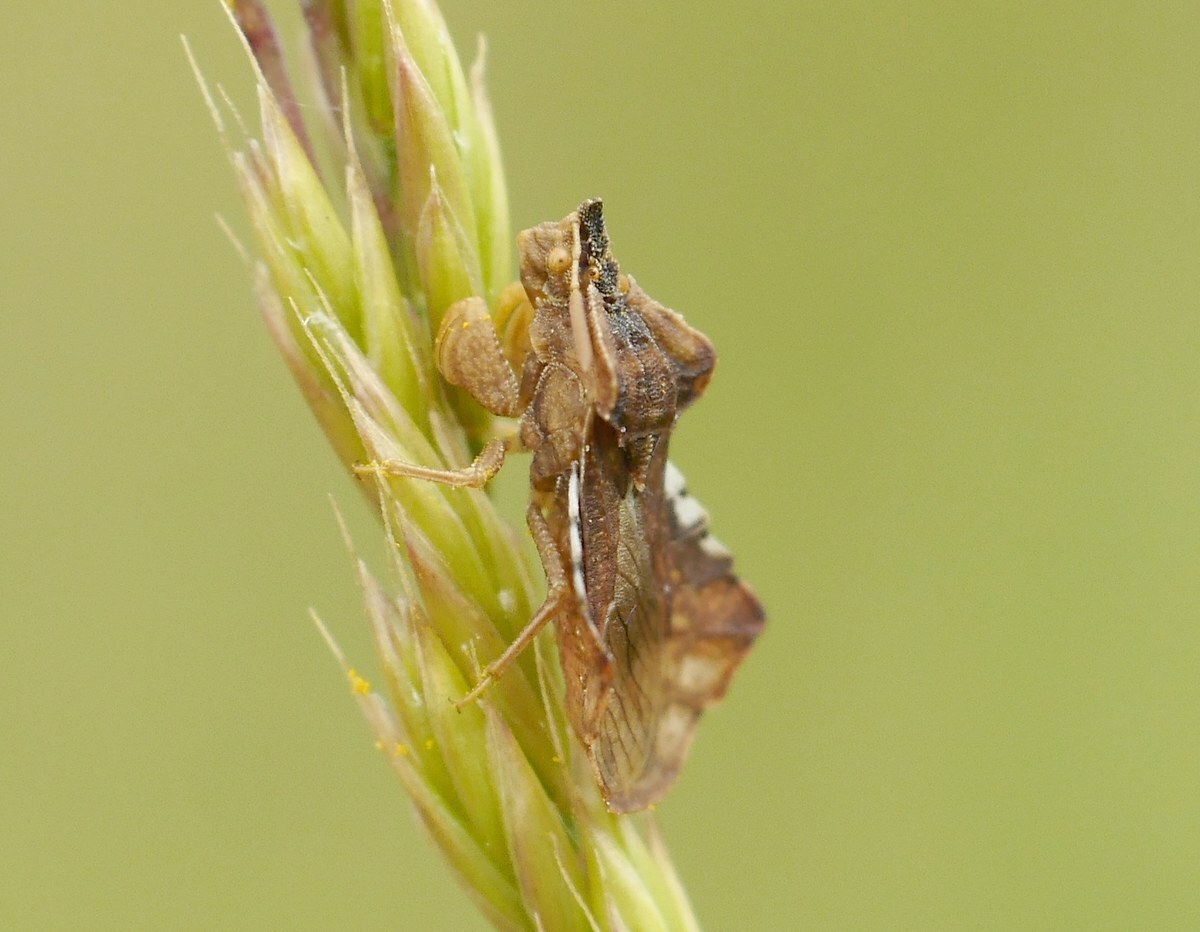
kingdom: Animalia
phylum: Arthropoda
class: Insecta
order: Hemiptera
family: Reduviidae
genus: Phymata
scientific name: Phymata crassipes
